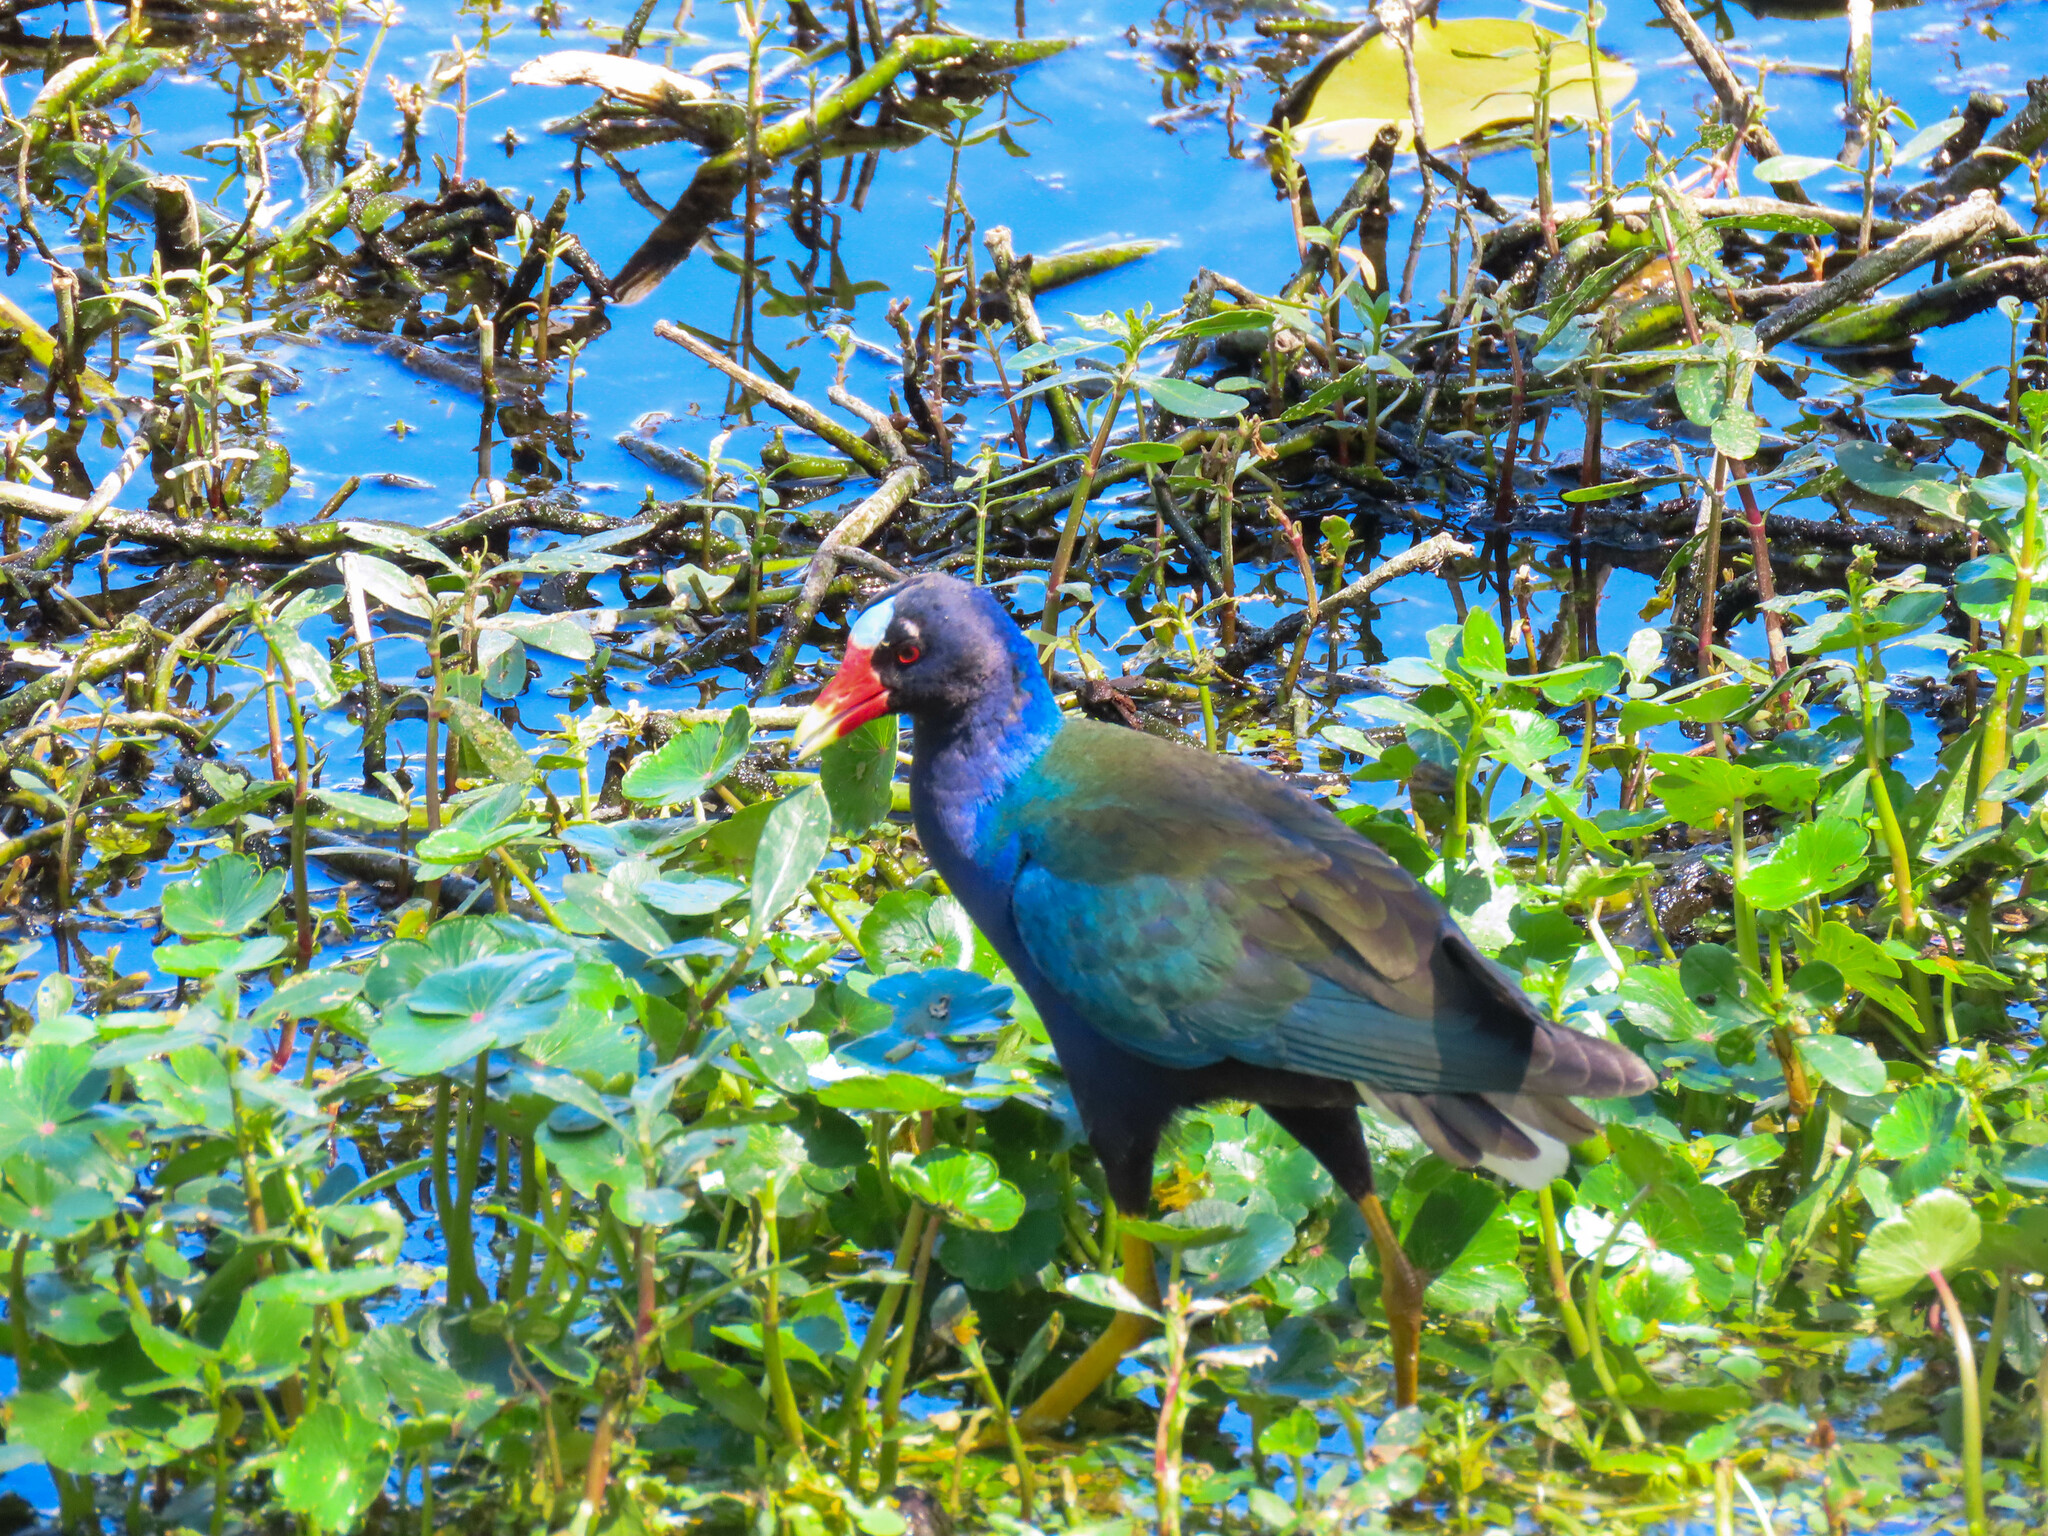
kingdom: Animalia
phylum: Chordata
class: Aves
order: Gruiformes
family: Rallidae
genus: Porphyrio
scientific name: Porphyrio martinica
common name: Purple gallinule
